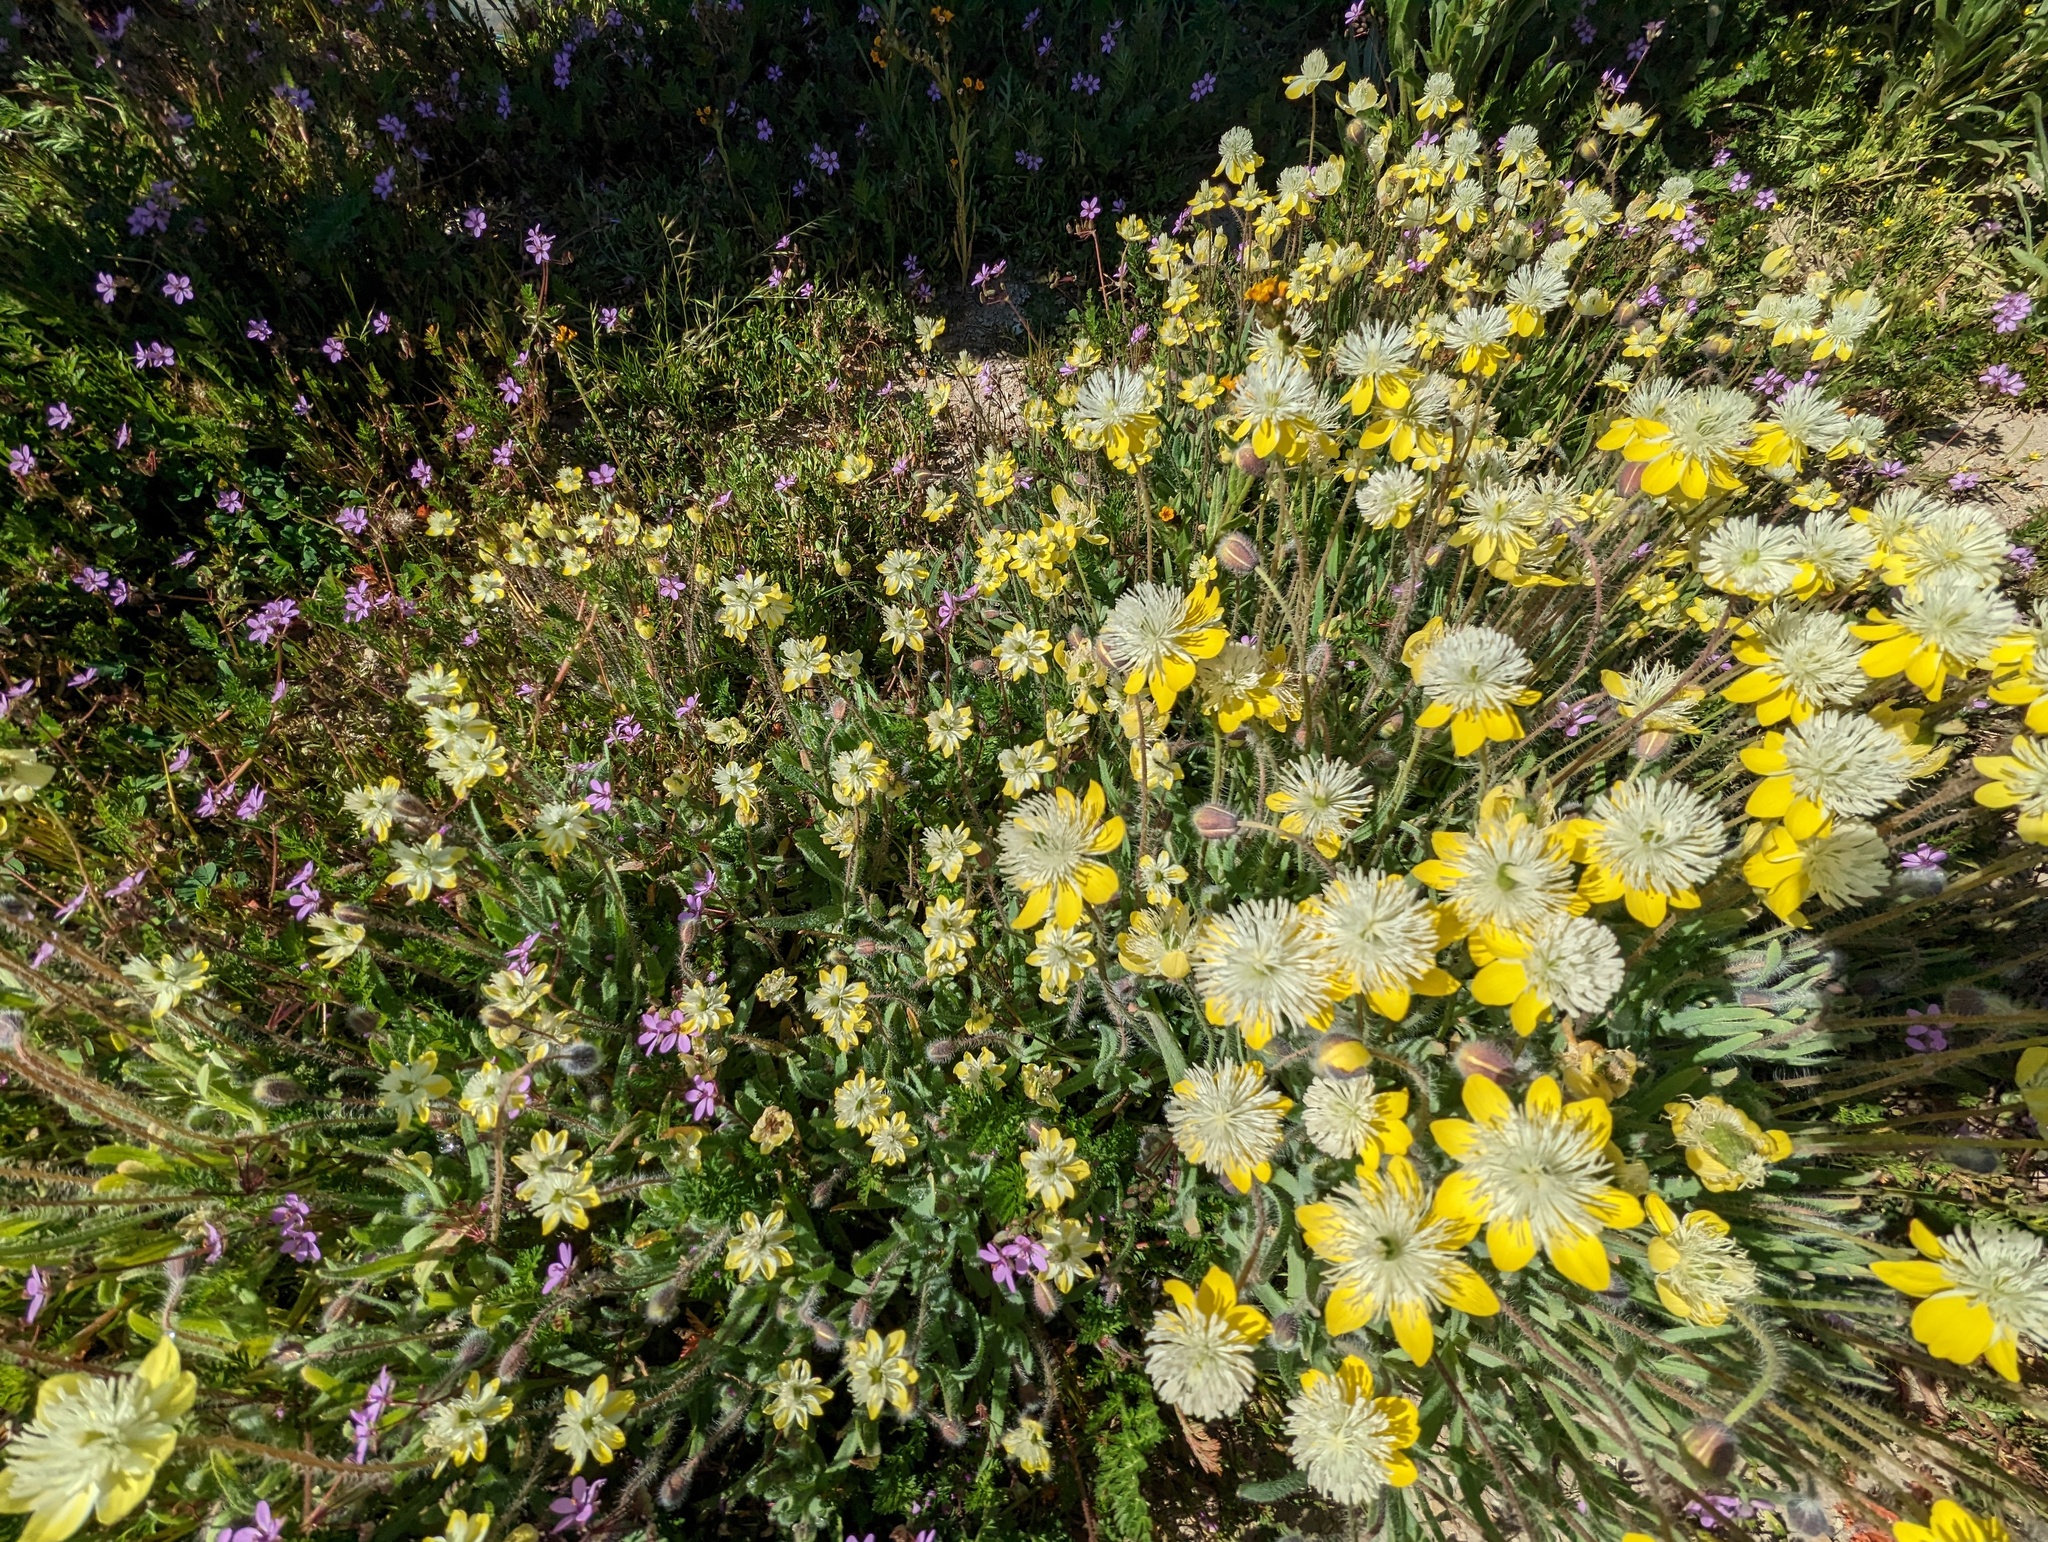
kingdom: Plantae
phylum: Tracheophyta
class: Magnoliopsida
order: Ranunculales
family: Papaveraceae
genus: Platystemon
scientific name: Platystemon californicus
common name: Cream-cups
